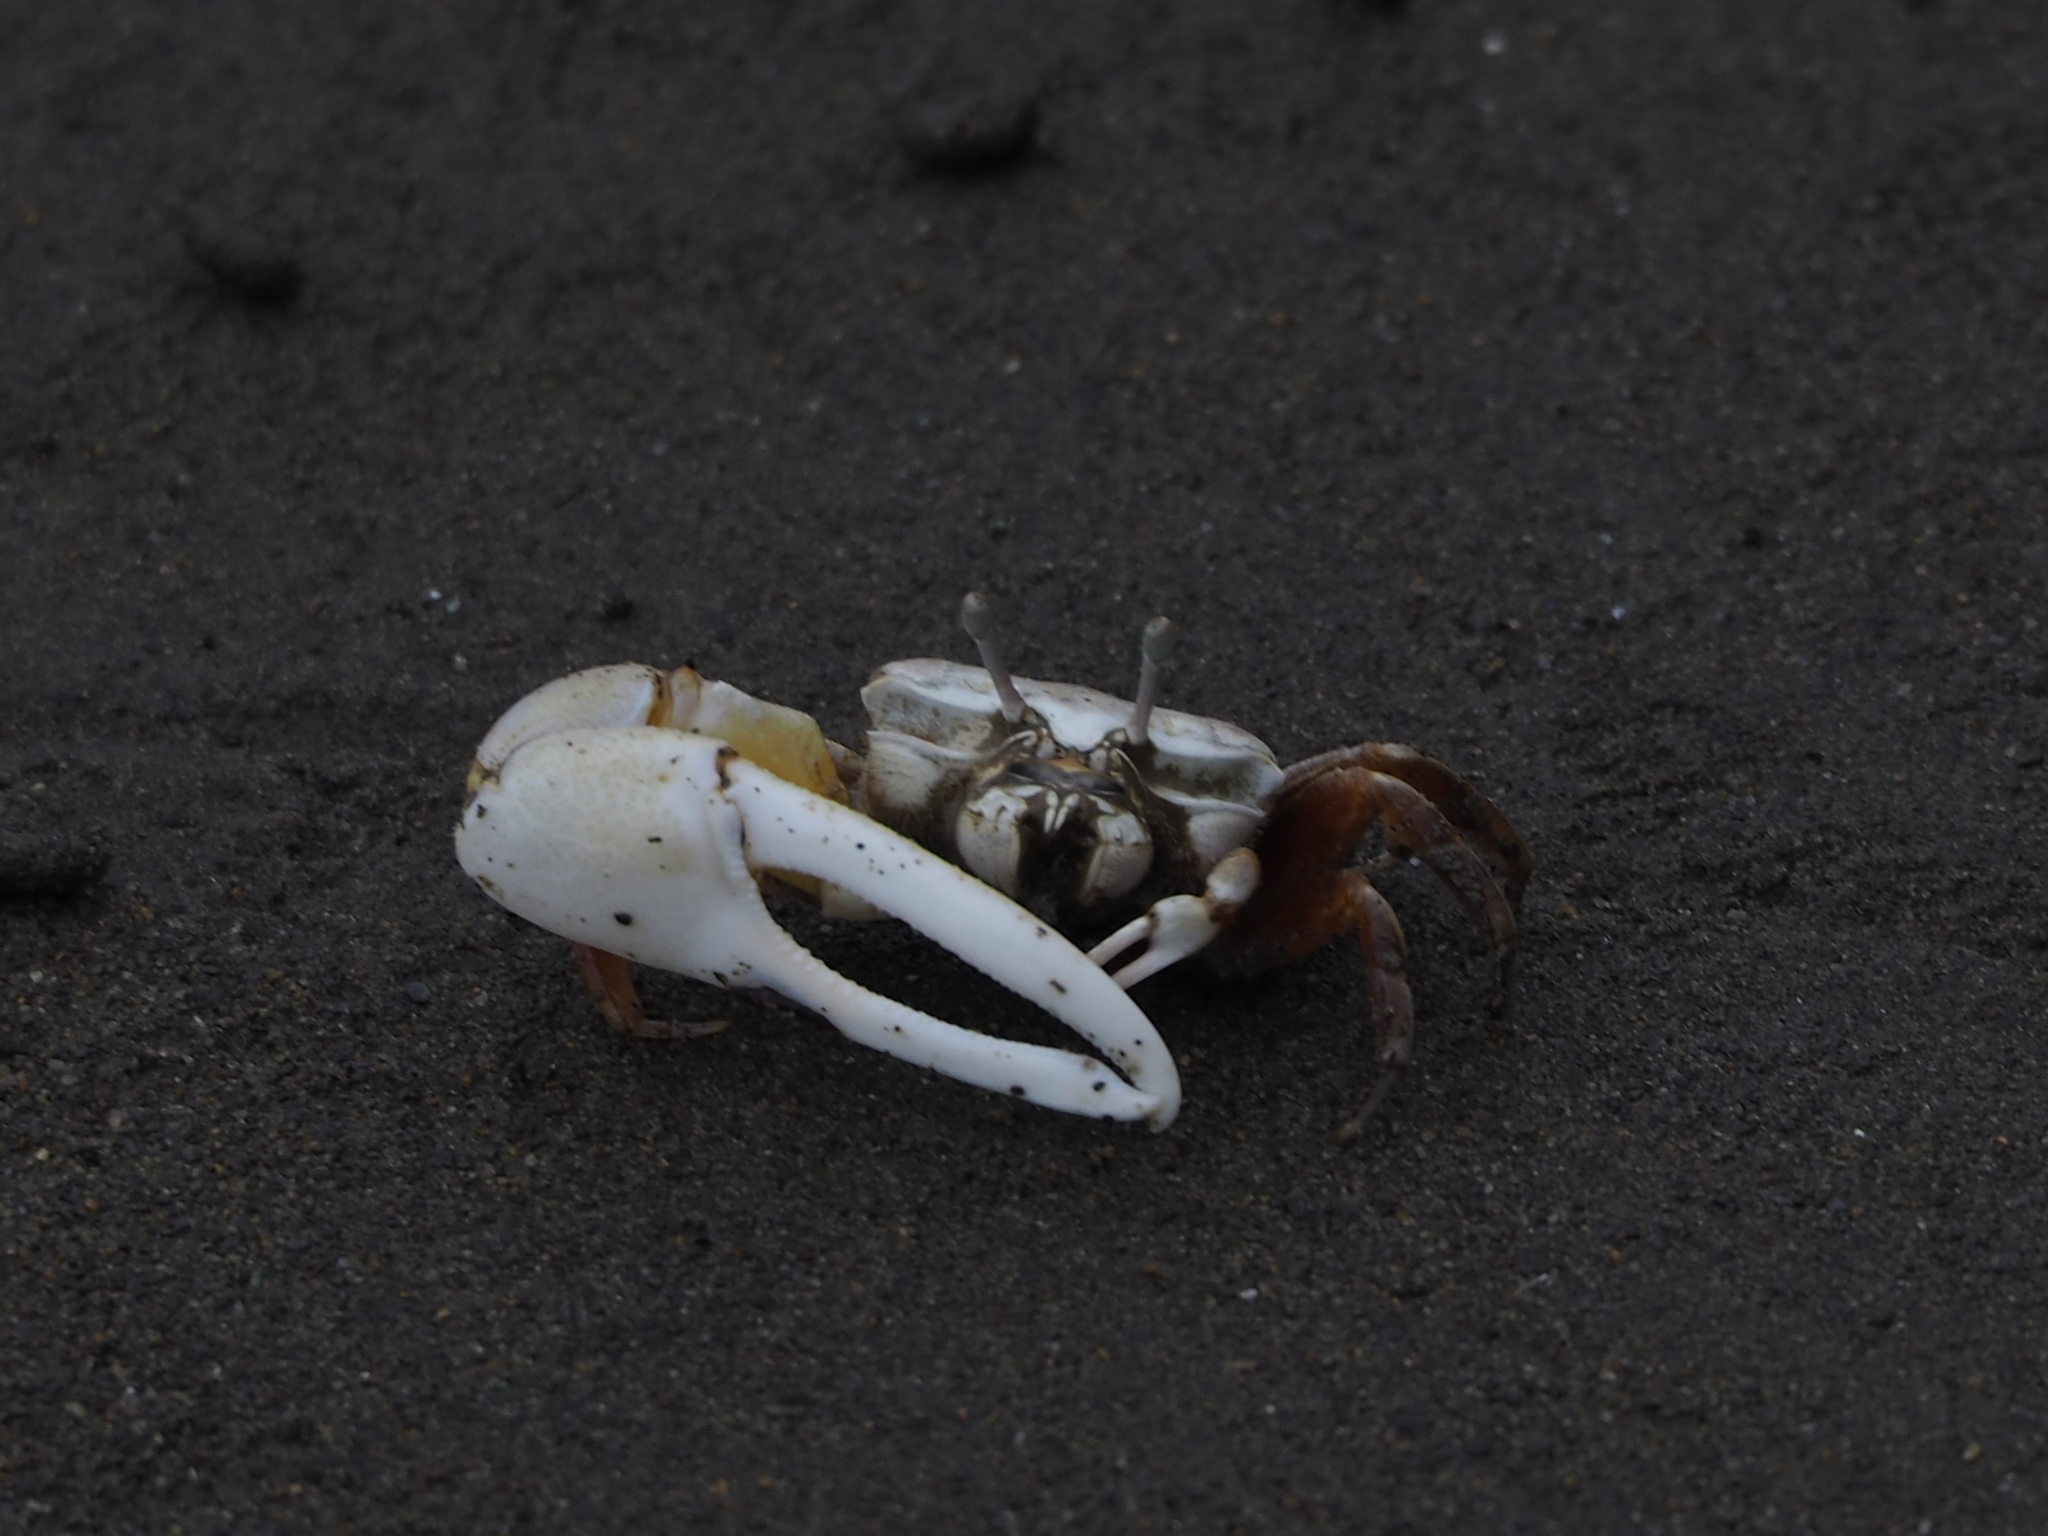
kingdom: Animalia
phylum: Arthropoda
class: Malacostraca
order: Decapoda
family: Ocypodidae
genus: Austruca
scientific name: Austruca lactea
